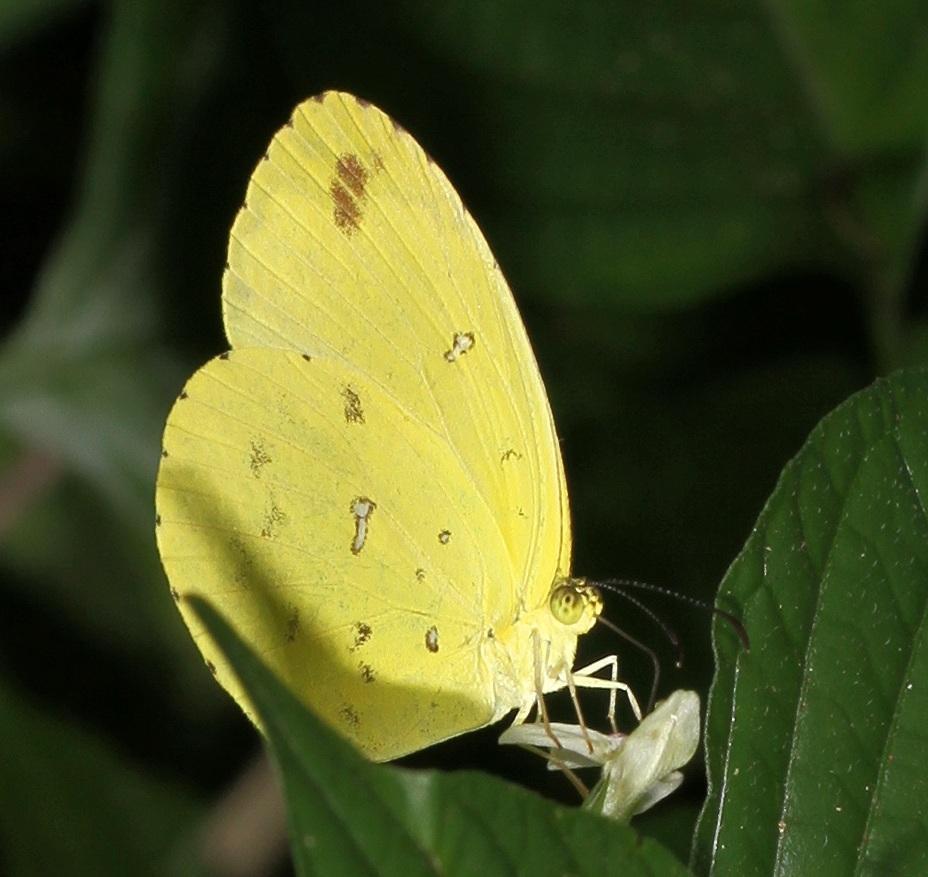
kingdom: Animalia
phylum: Arthropoda
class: Insecta
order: Lepidoptera
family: Pieridae
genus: Eurema
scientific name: Eurema floricola
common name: Malagasy grass yellow
